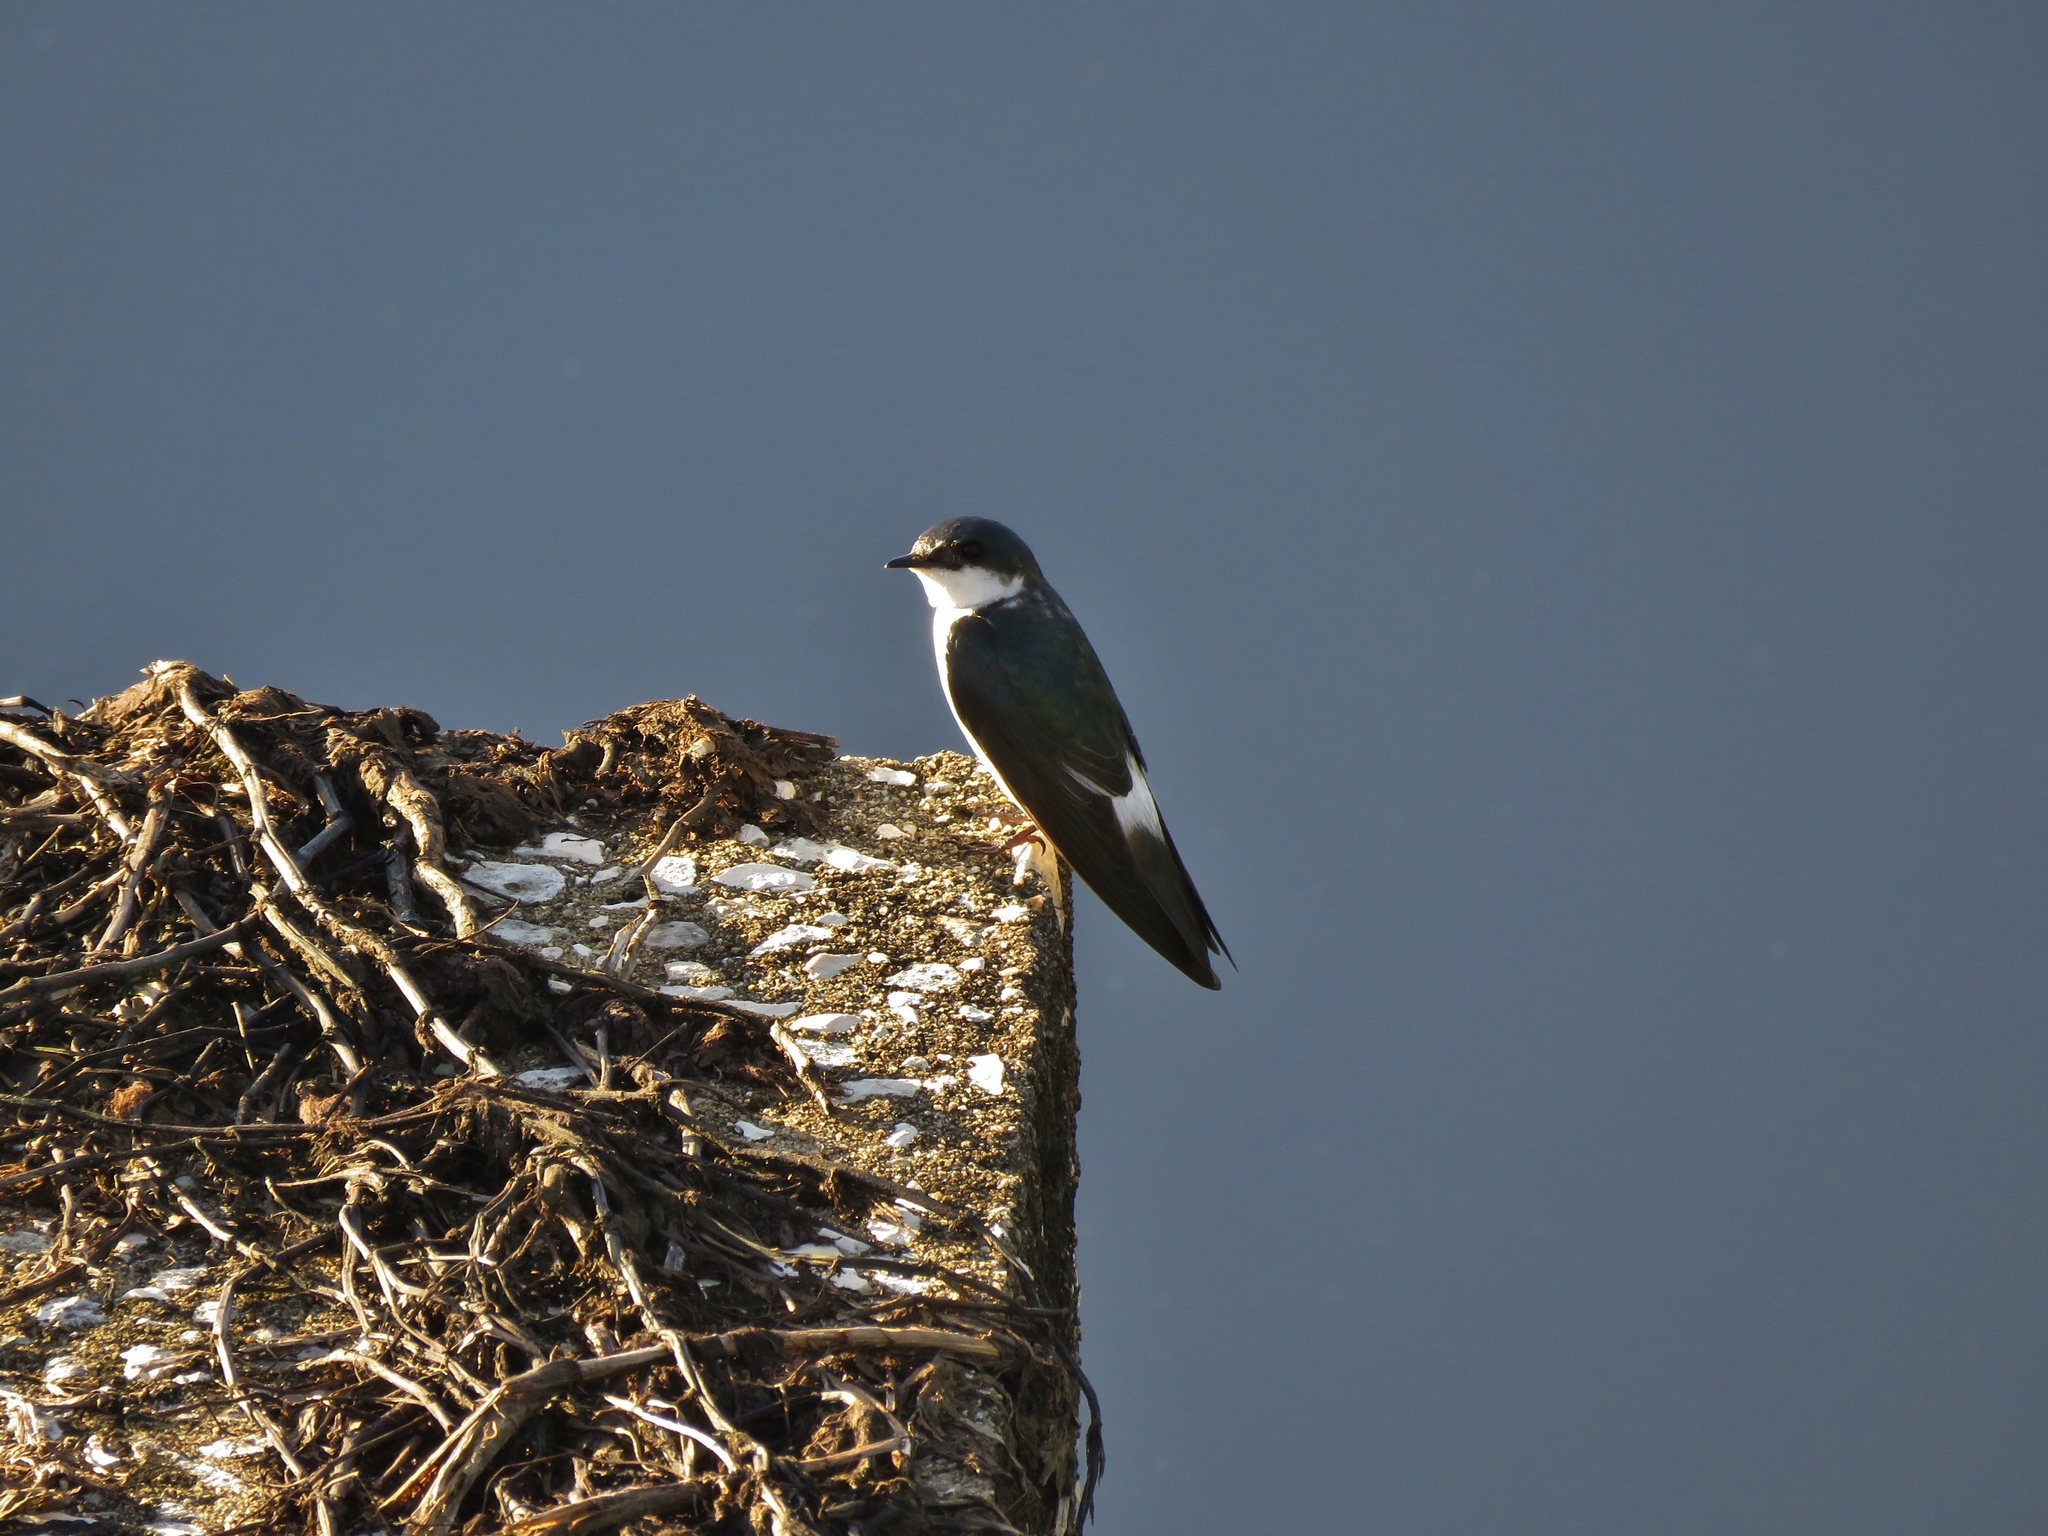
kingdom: Animalia
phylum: Chordata
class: Aves
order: Passeriformes
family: Hirundinidae
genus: Tachycineta
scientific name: Tachycineta albilinea
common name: Mangrove swallow
